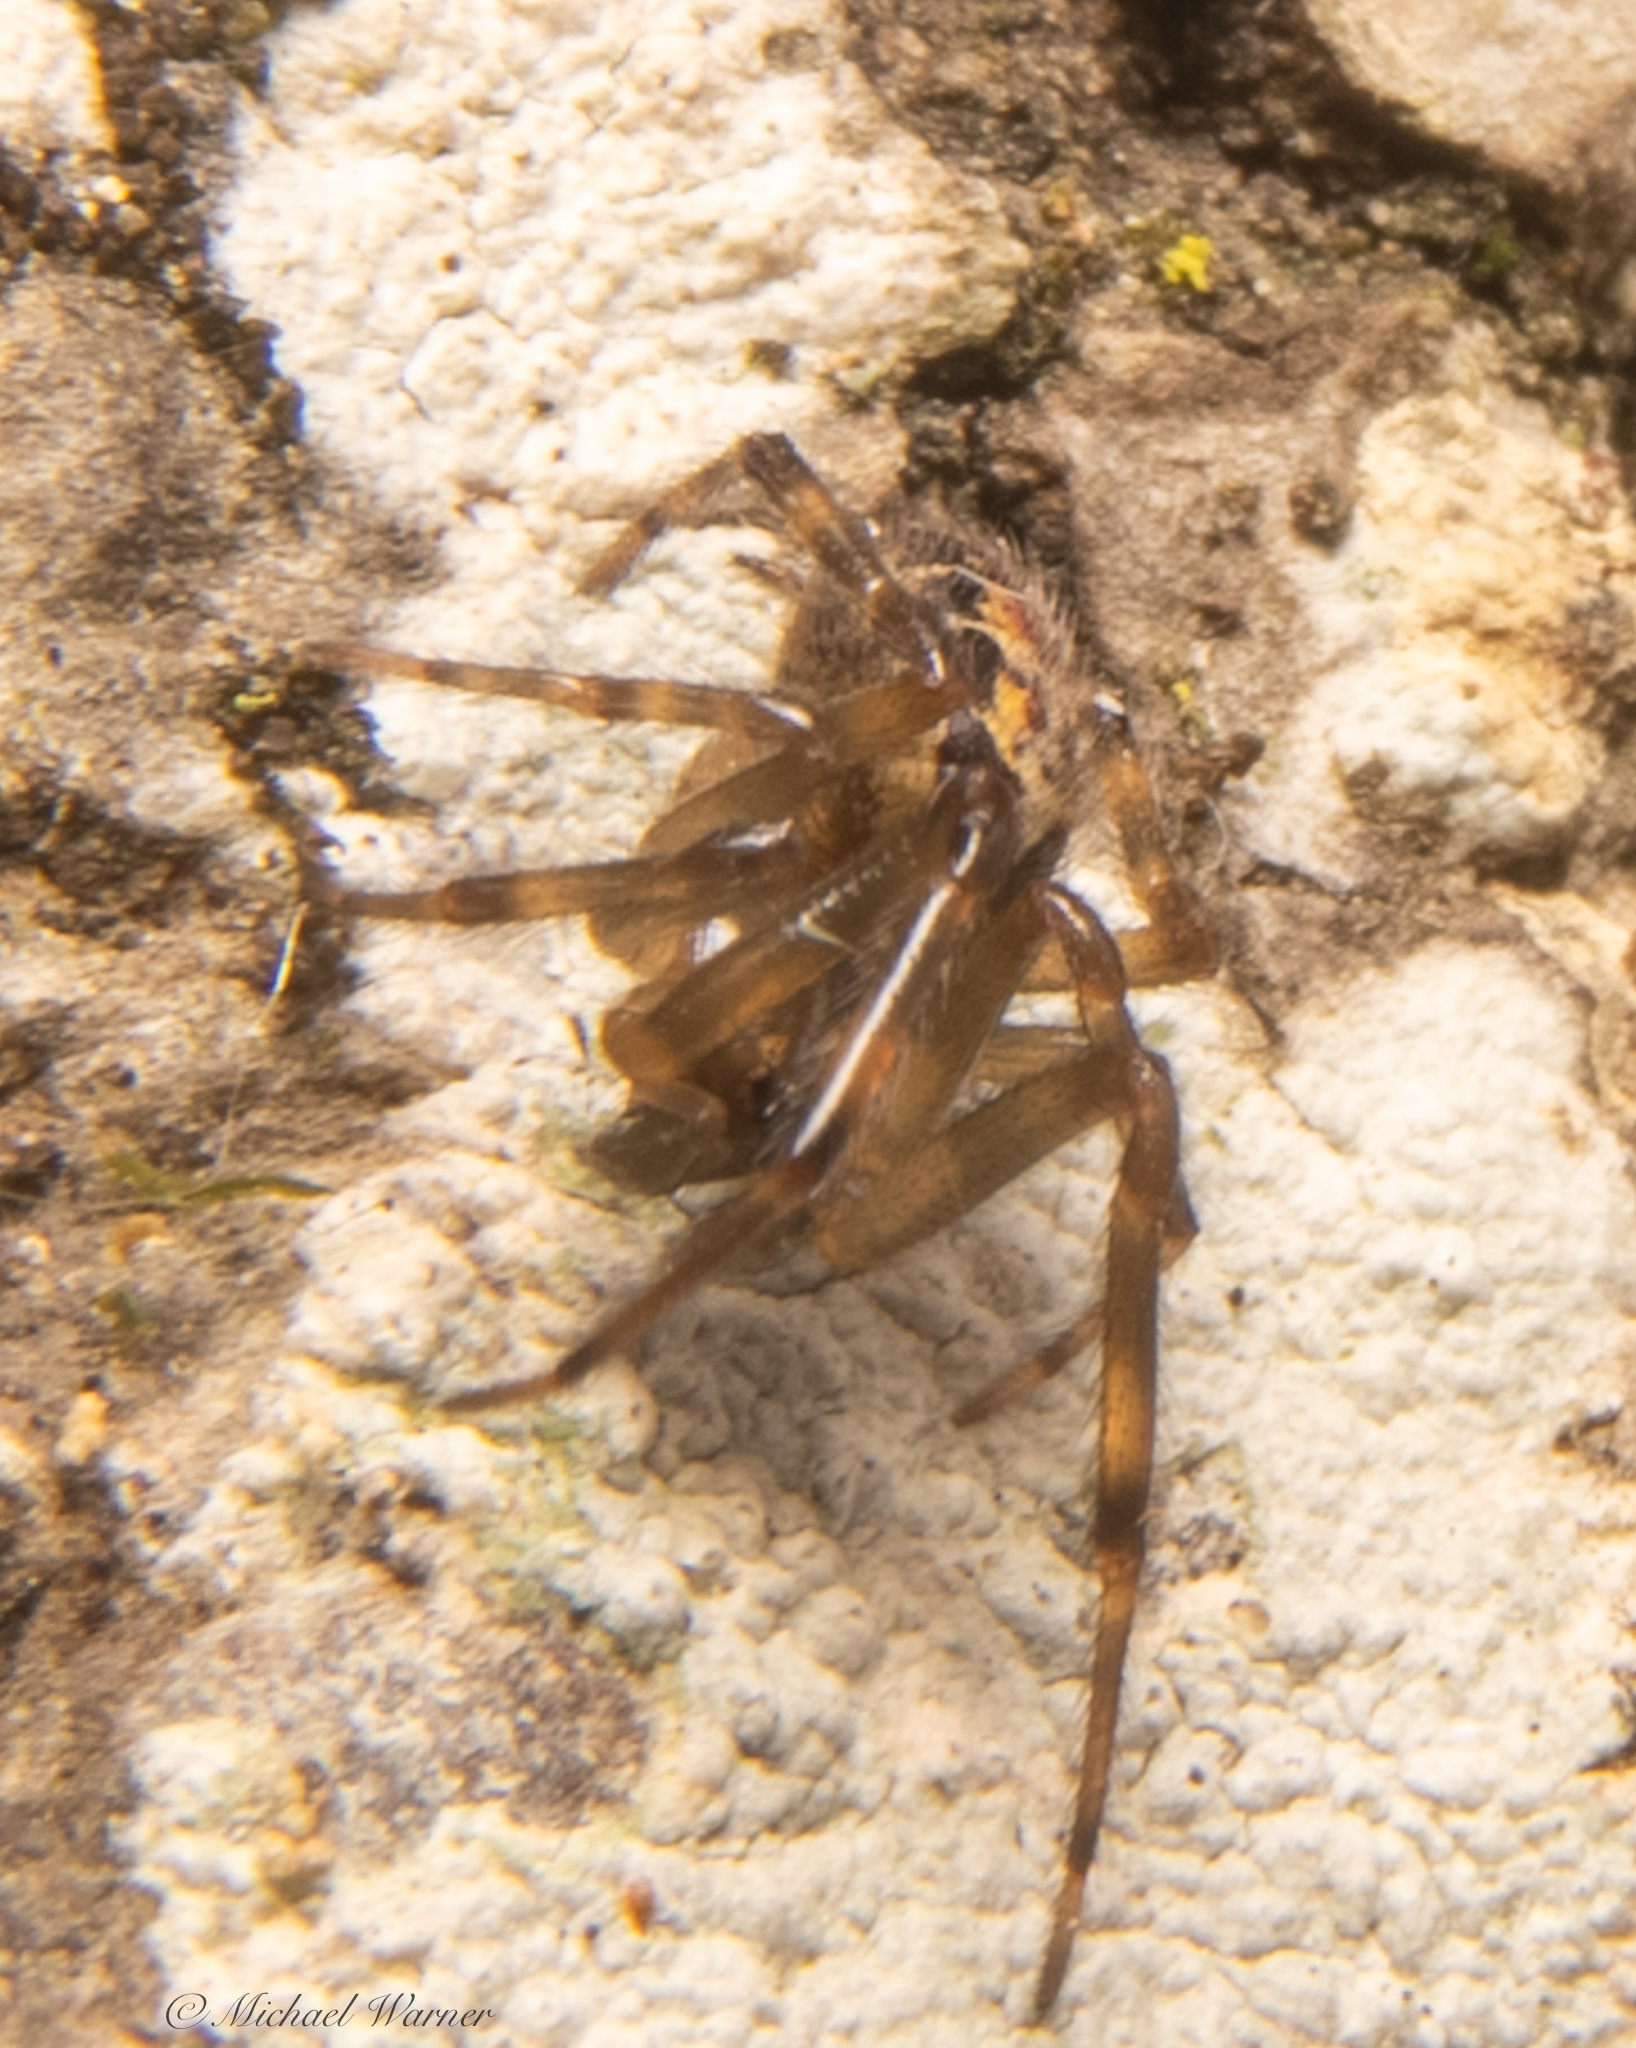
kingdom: Animalia
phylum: Arthropoda
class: Arachnida
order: Araneae
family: Theridiidae
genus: Steatoda
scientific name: Steatoda nobilis
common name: Cobweb weaver
